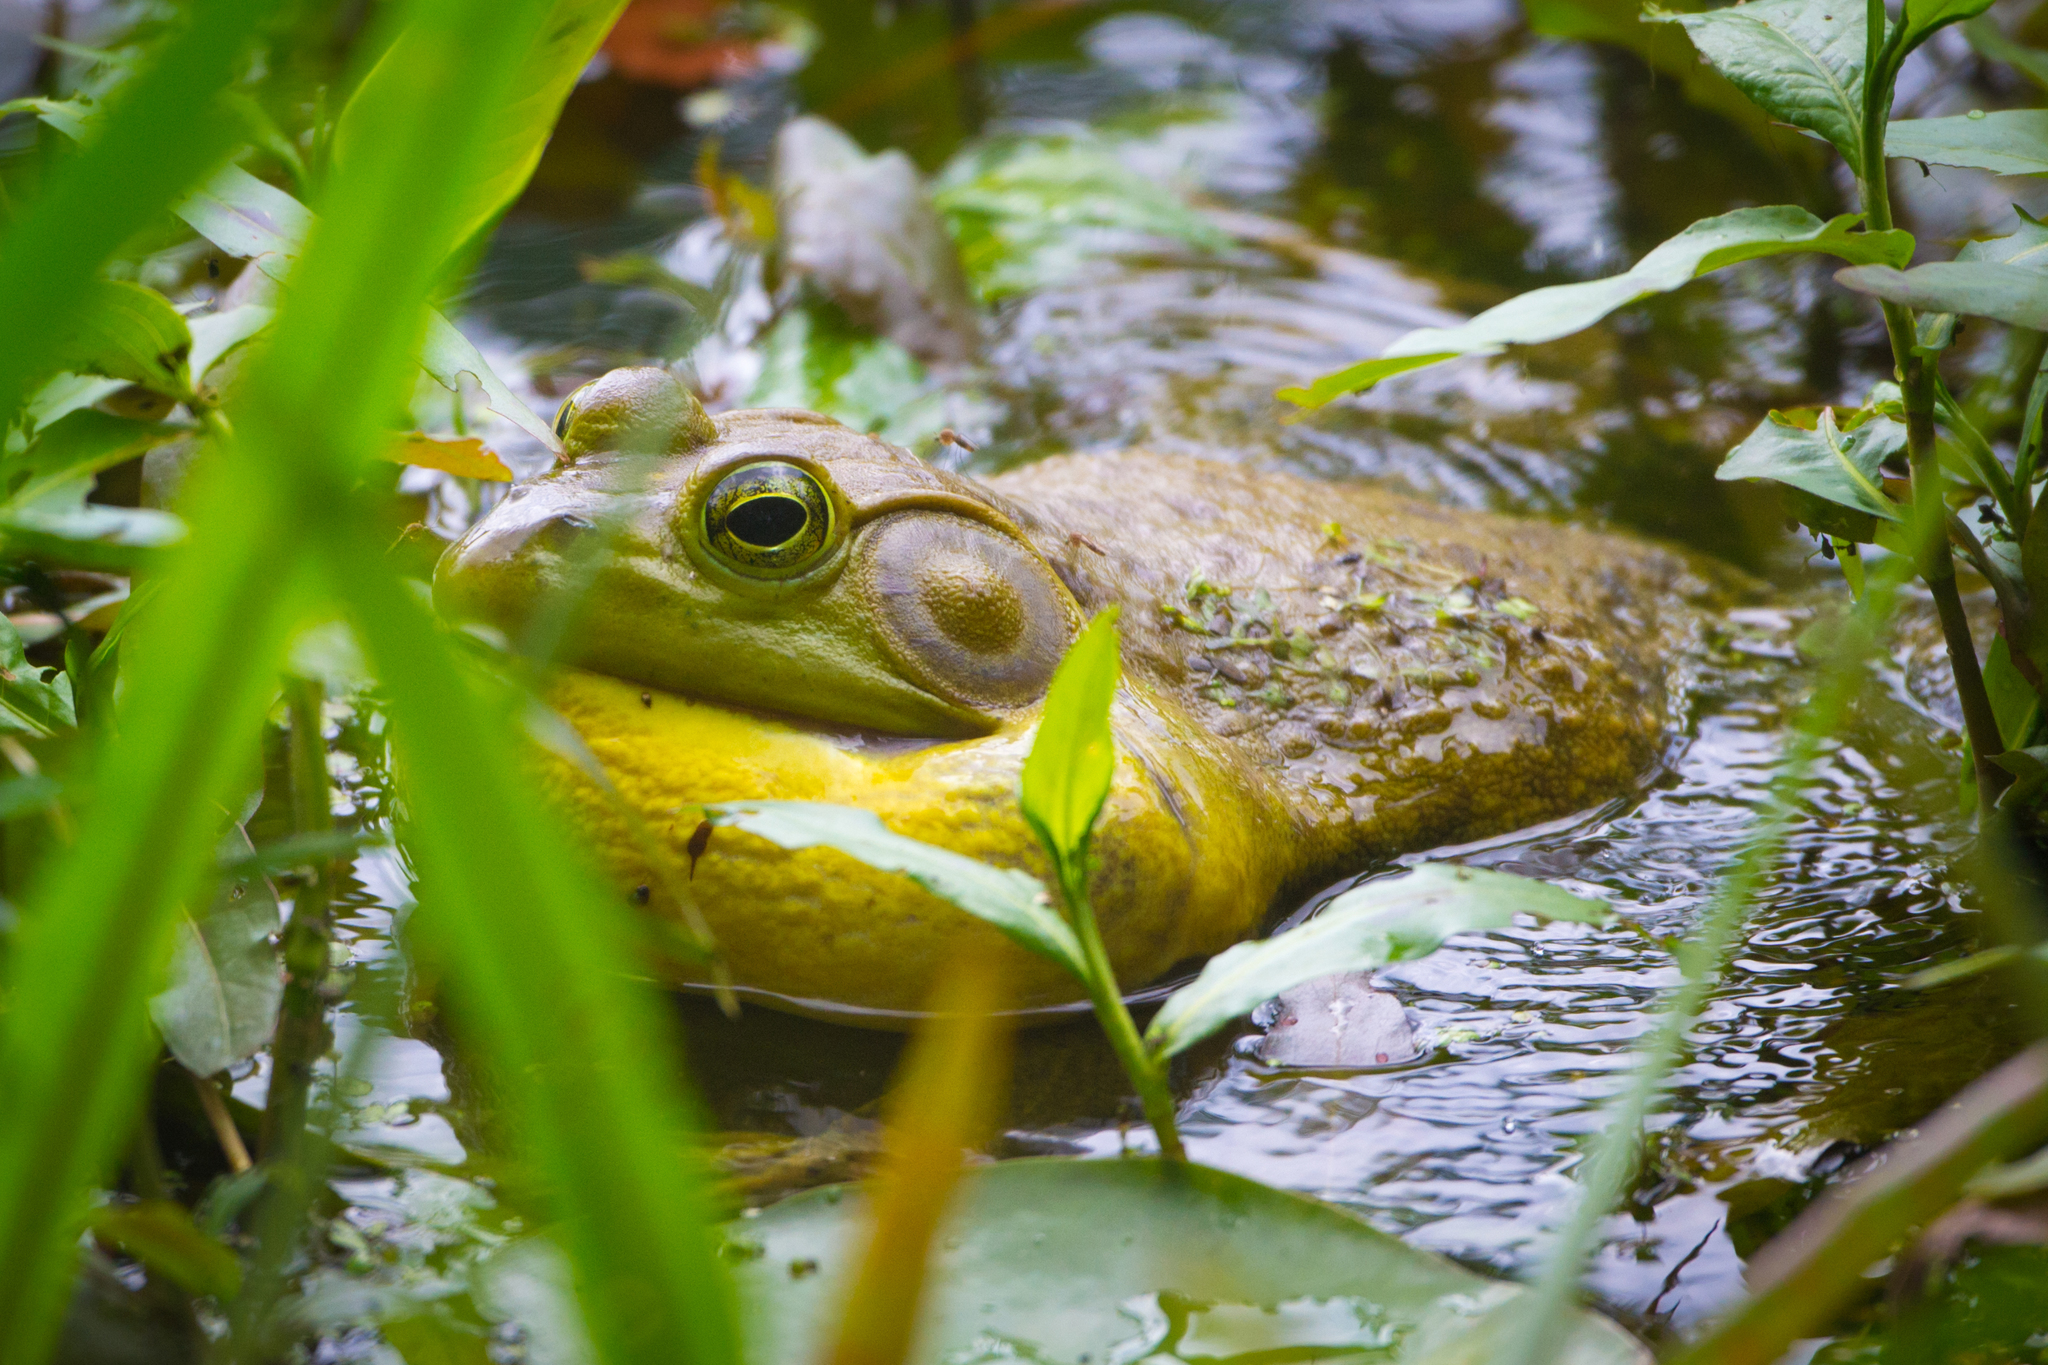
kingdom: Animalia
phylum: Chordata
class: Amphibia
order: Anura
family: Ranidae
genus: Lithobates
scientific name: Lithobates catesbeianus
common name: American bullfrog
